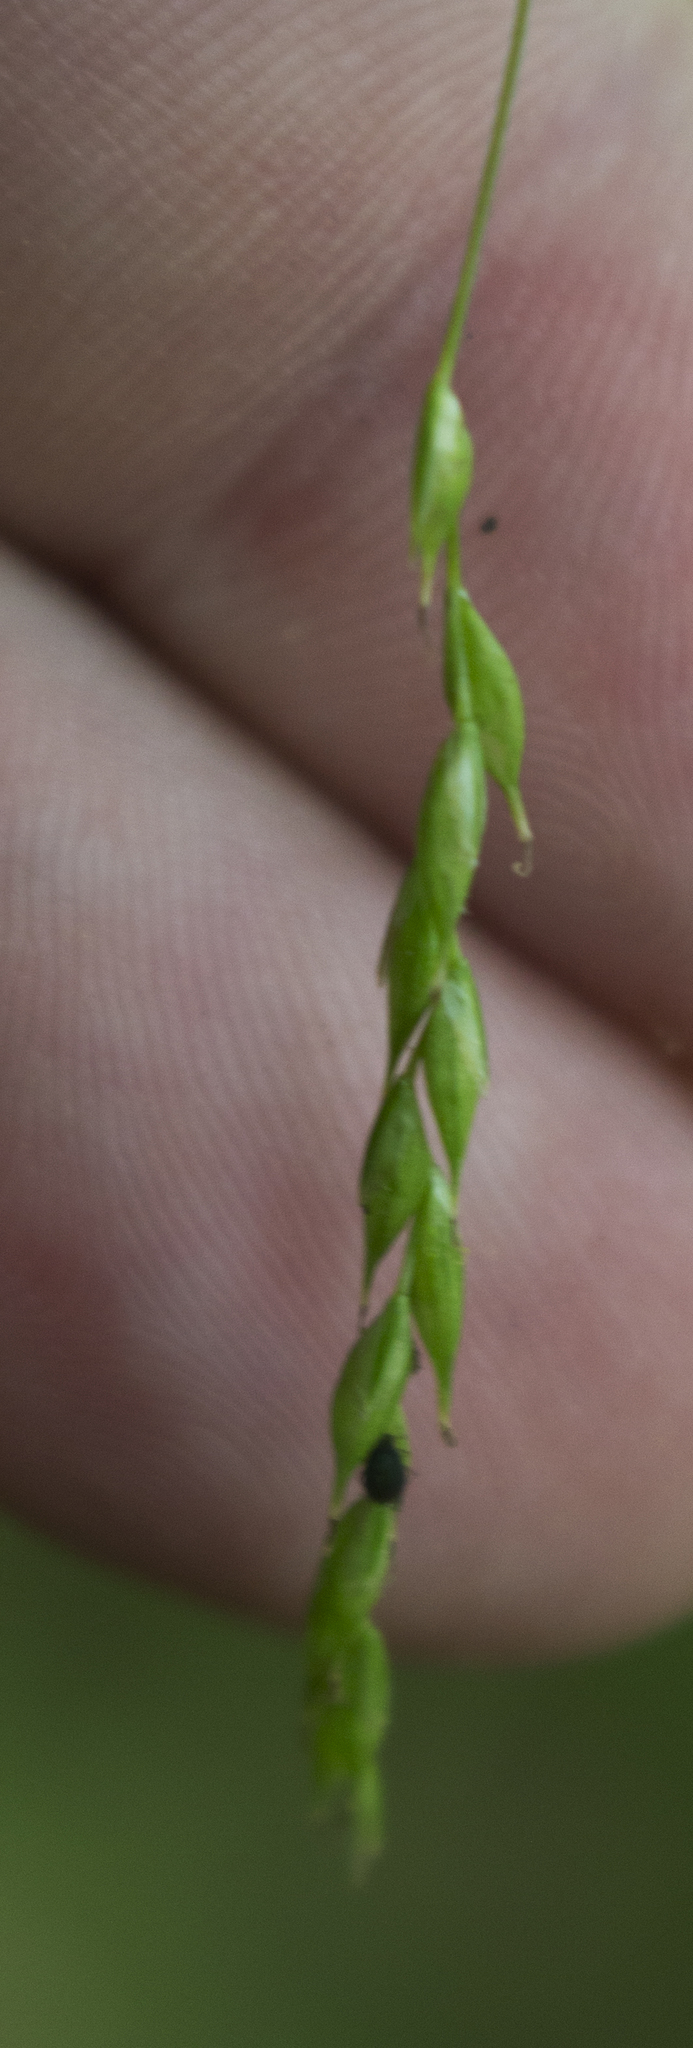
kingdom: Plantae
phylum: Tracheophyta
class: Liliopsida
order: Poales
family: Cyperaceae
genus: Carex
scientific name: Carex debilis
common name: White-edge sedge
